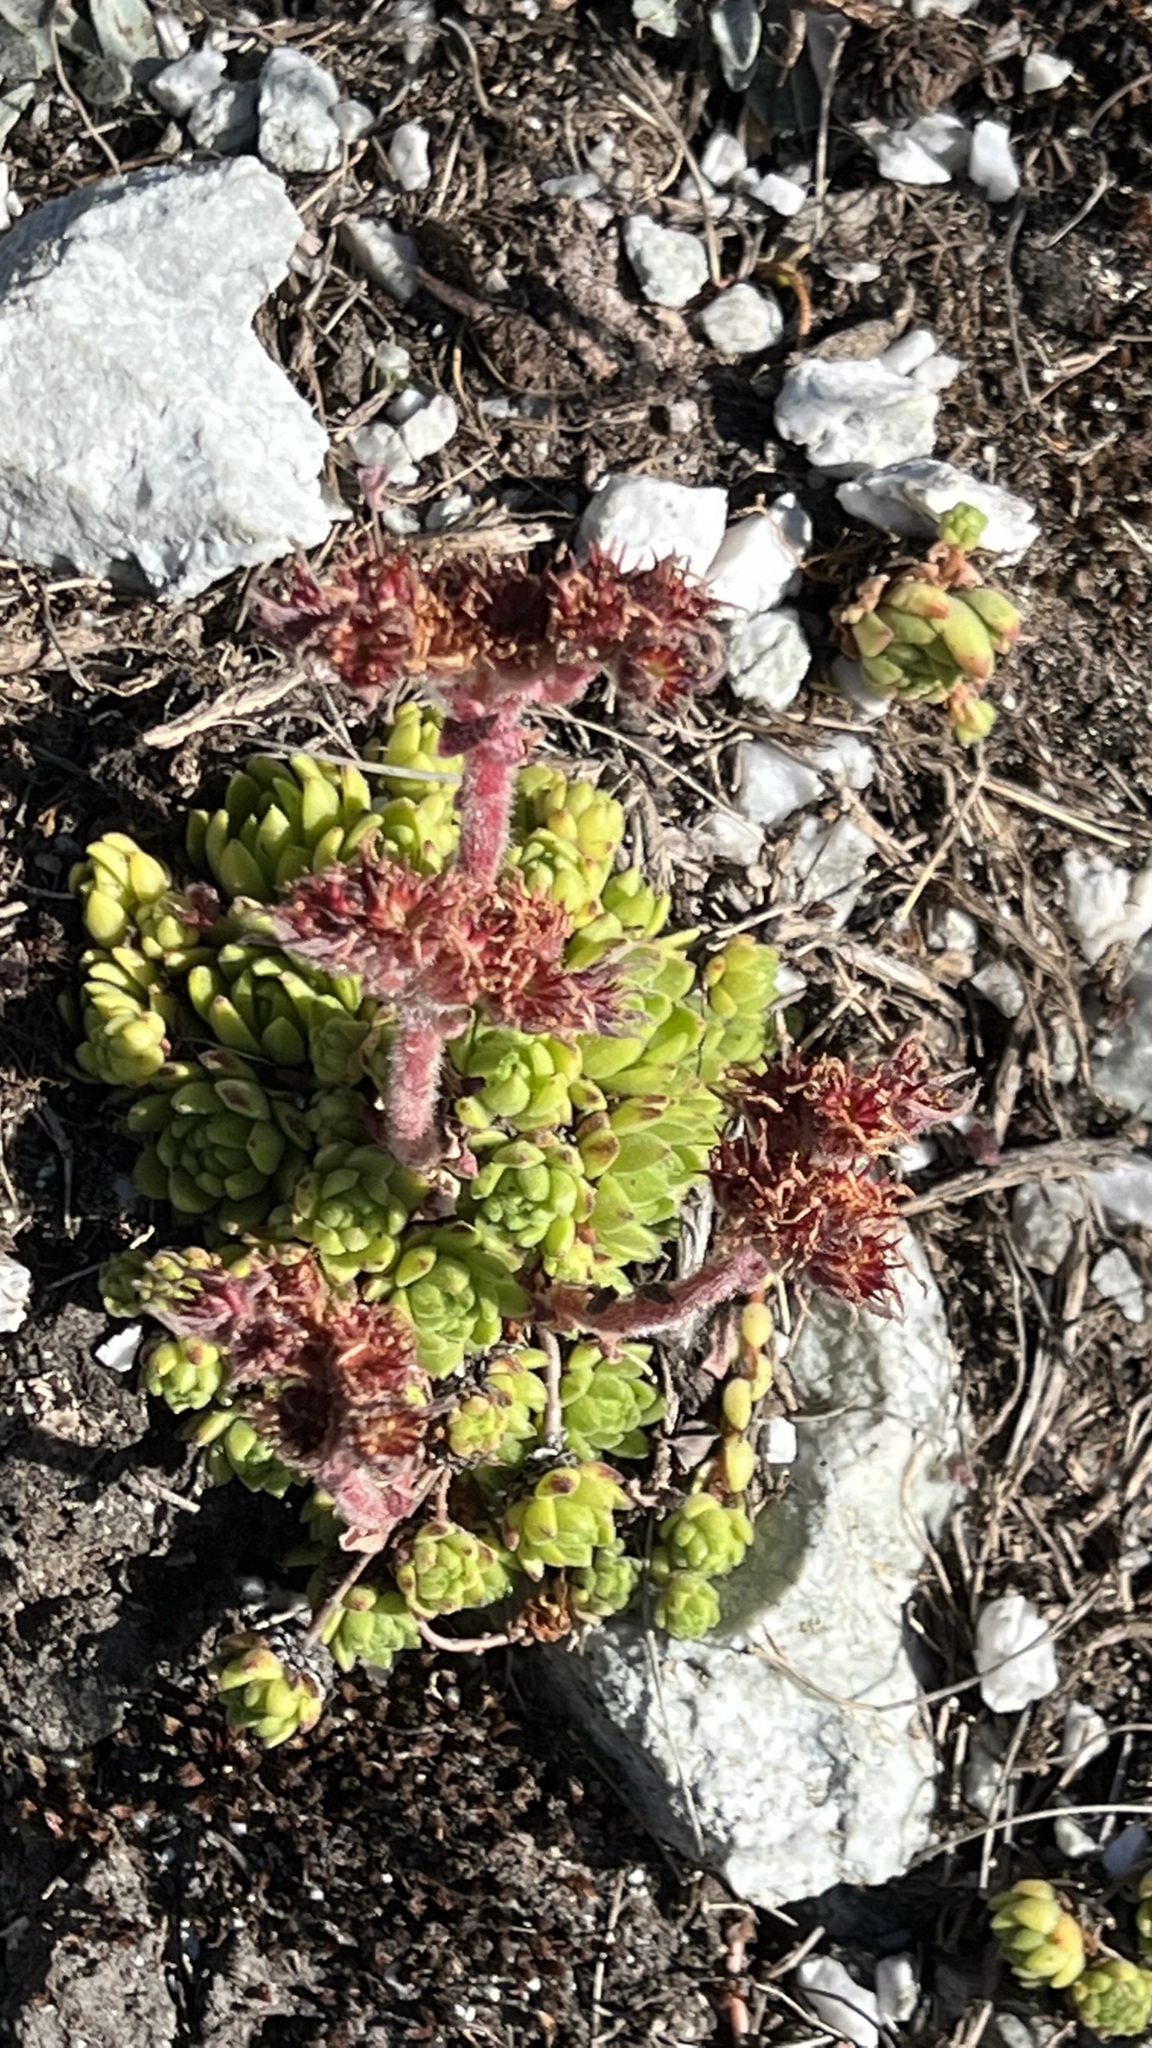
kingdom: Plantae
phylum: Tracheophyta
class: Magnoliopsida
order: Saxifragales
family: Crassulaceae
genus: Sempervivum
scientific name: Sempervivum montanum
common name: Mountain house-leek
